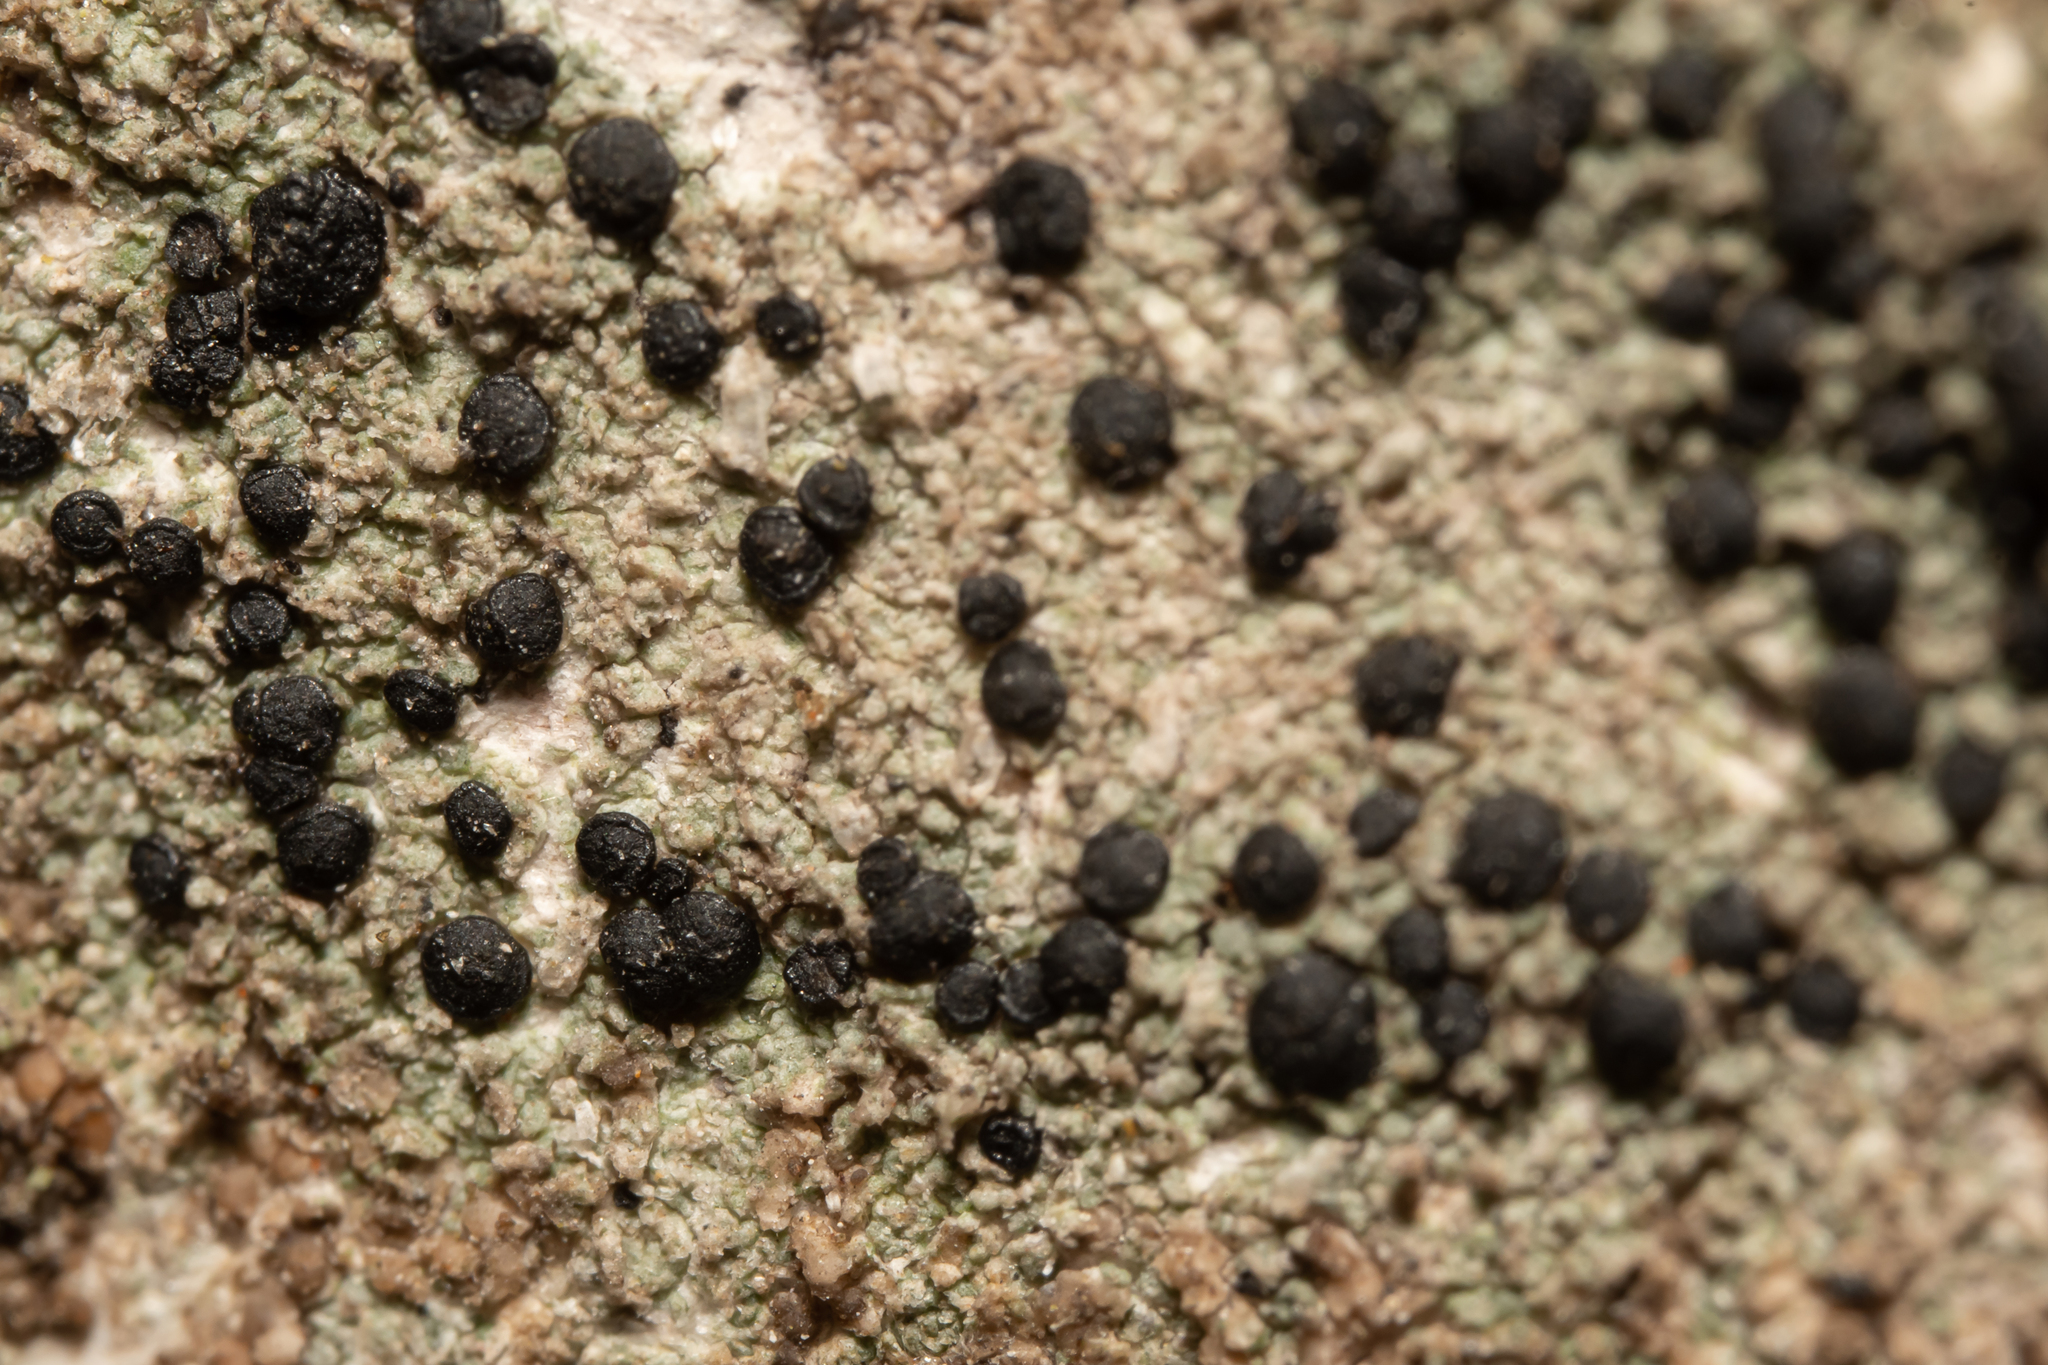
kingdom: Fungi
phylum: Ascomycota
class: Lecanoromycetes
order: Lecanorales
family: Lecanoraceae
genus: Lecidella
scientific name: Lecidella elaeochroma
